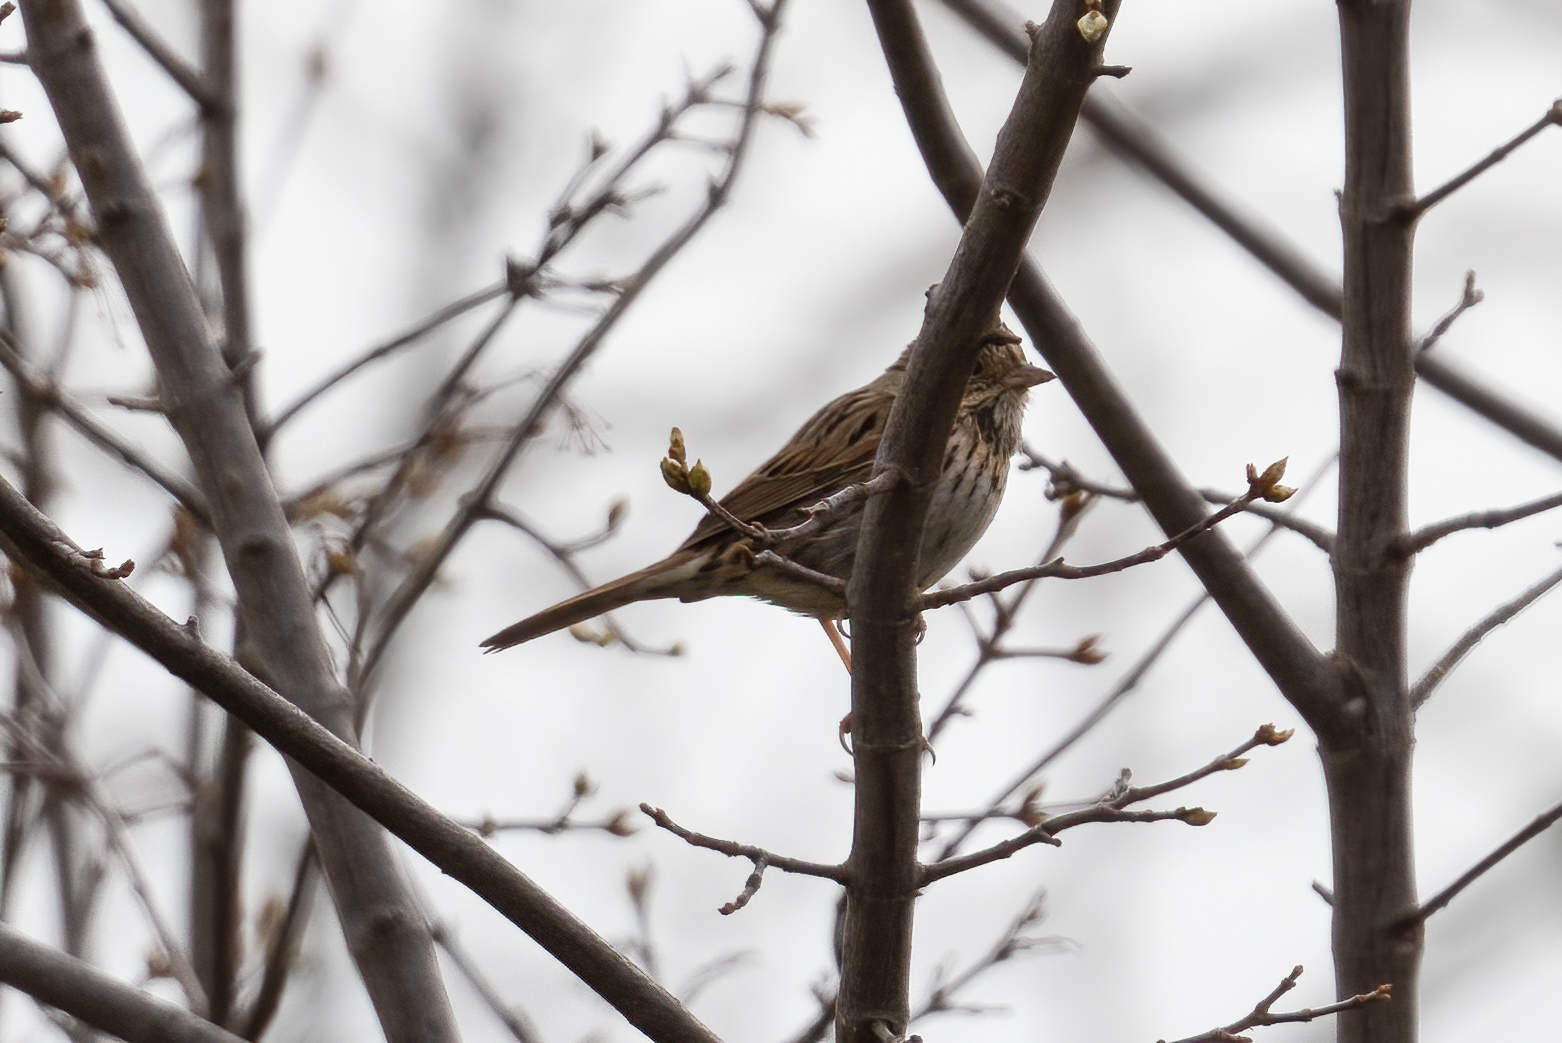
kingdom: Animalia
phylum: Chordata
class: Aves
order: Passeriformes
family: Passerellidae
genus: Melospiza
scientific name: Melospiza lincolnii
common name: Lincoln's sparrow
